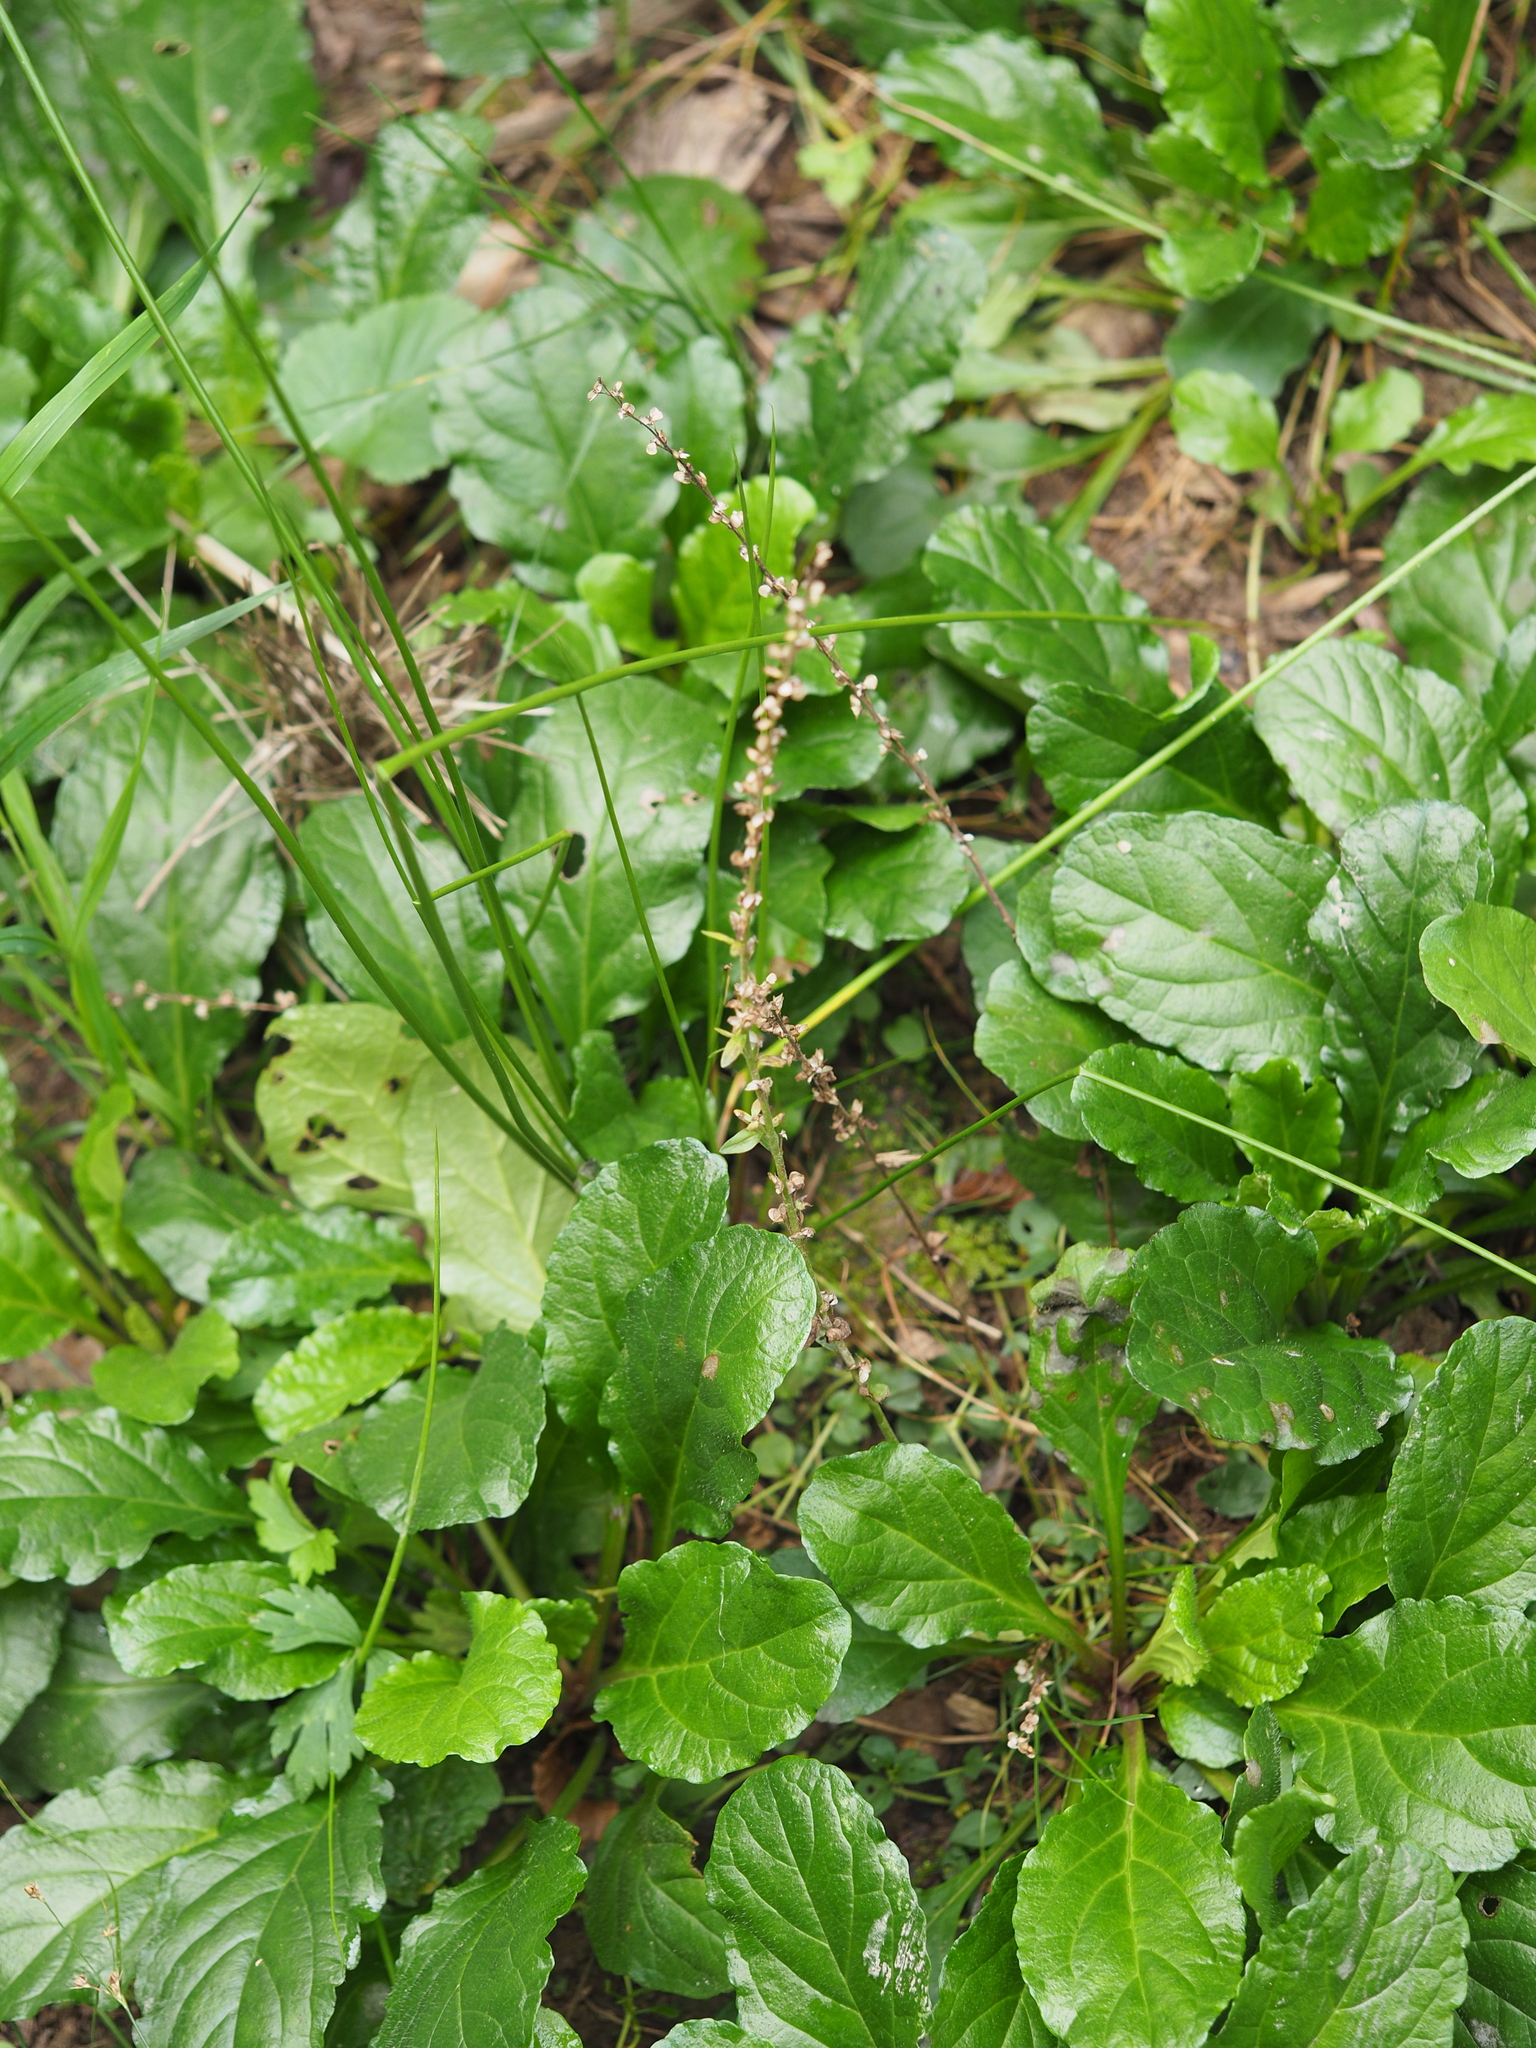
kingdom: Plantae
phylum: Tracheophyta
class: Magnoliopsida
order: Lamiales
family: Plantaginaceae
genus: Veronica
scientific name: Veronica serpyllifolia
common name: Thyme-leaved speedwell
